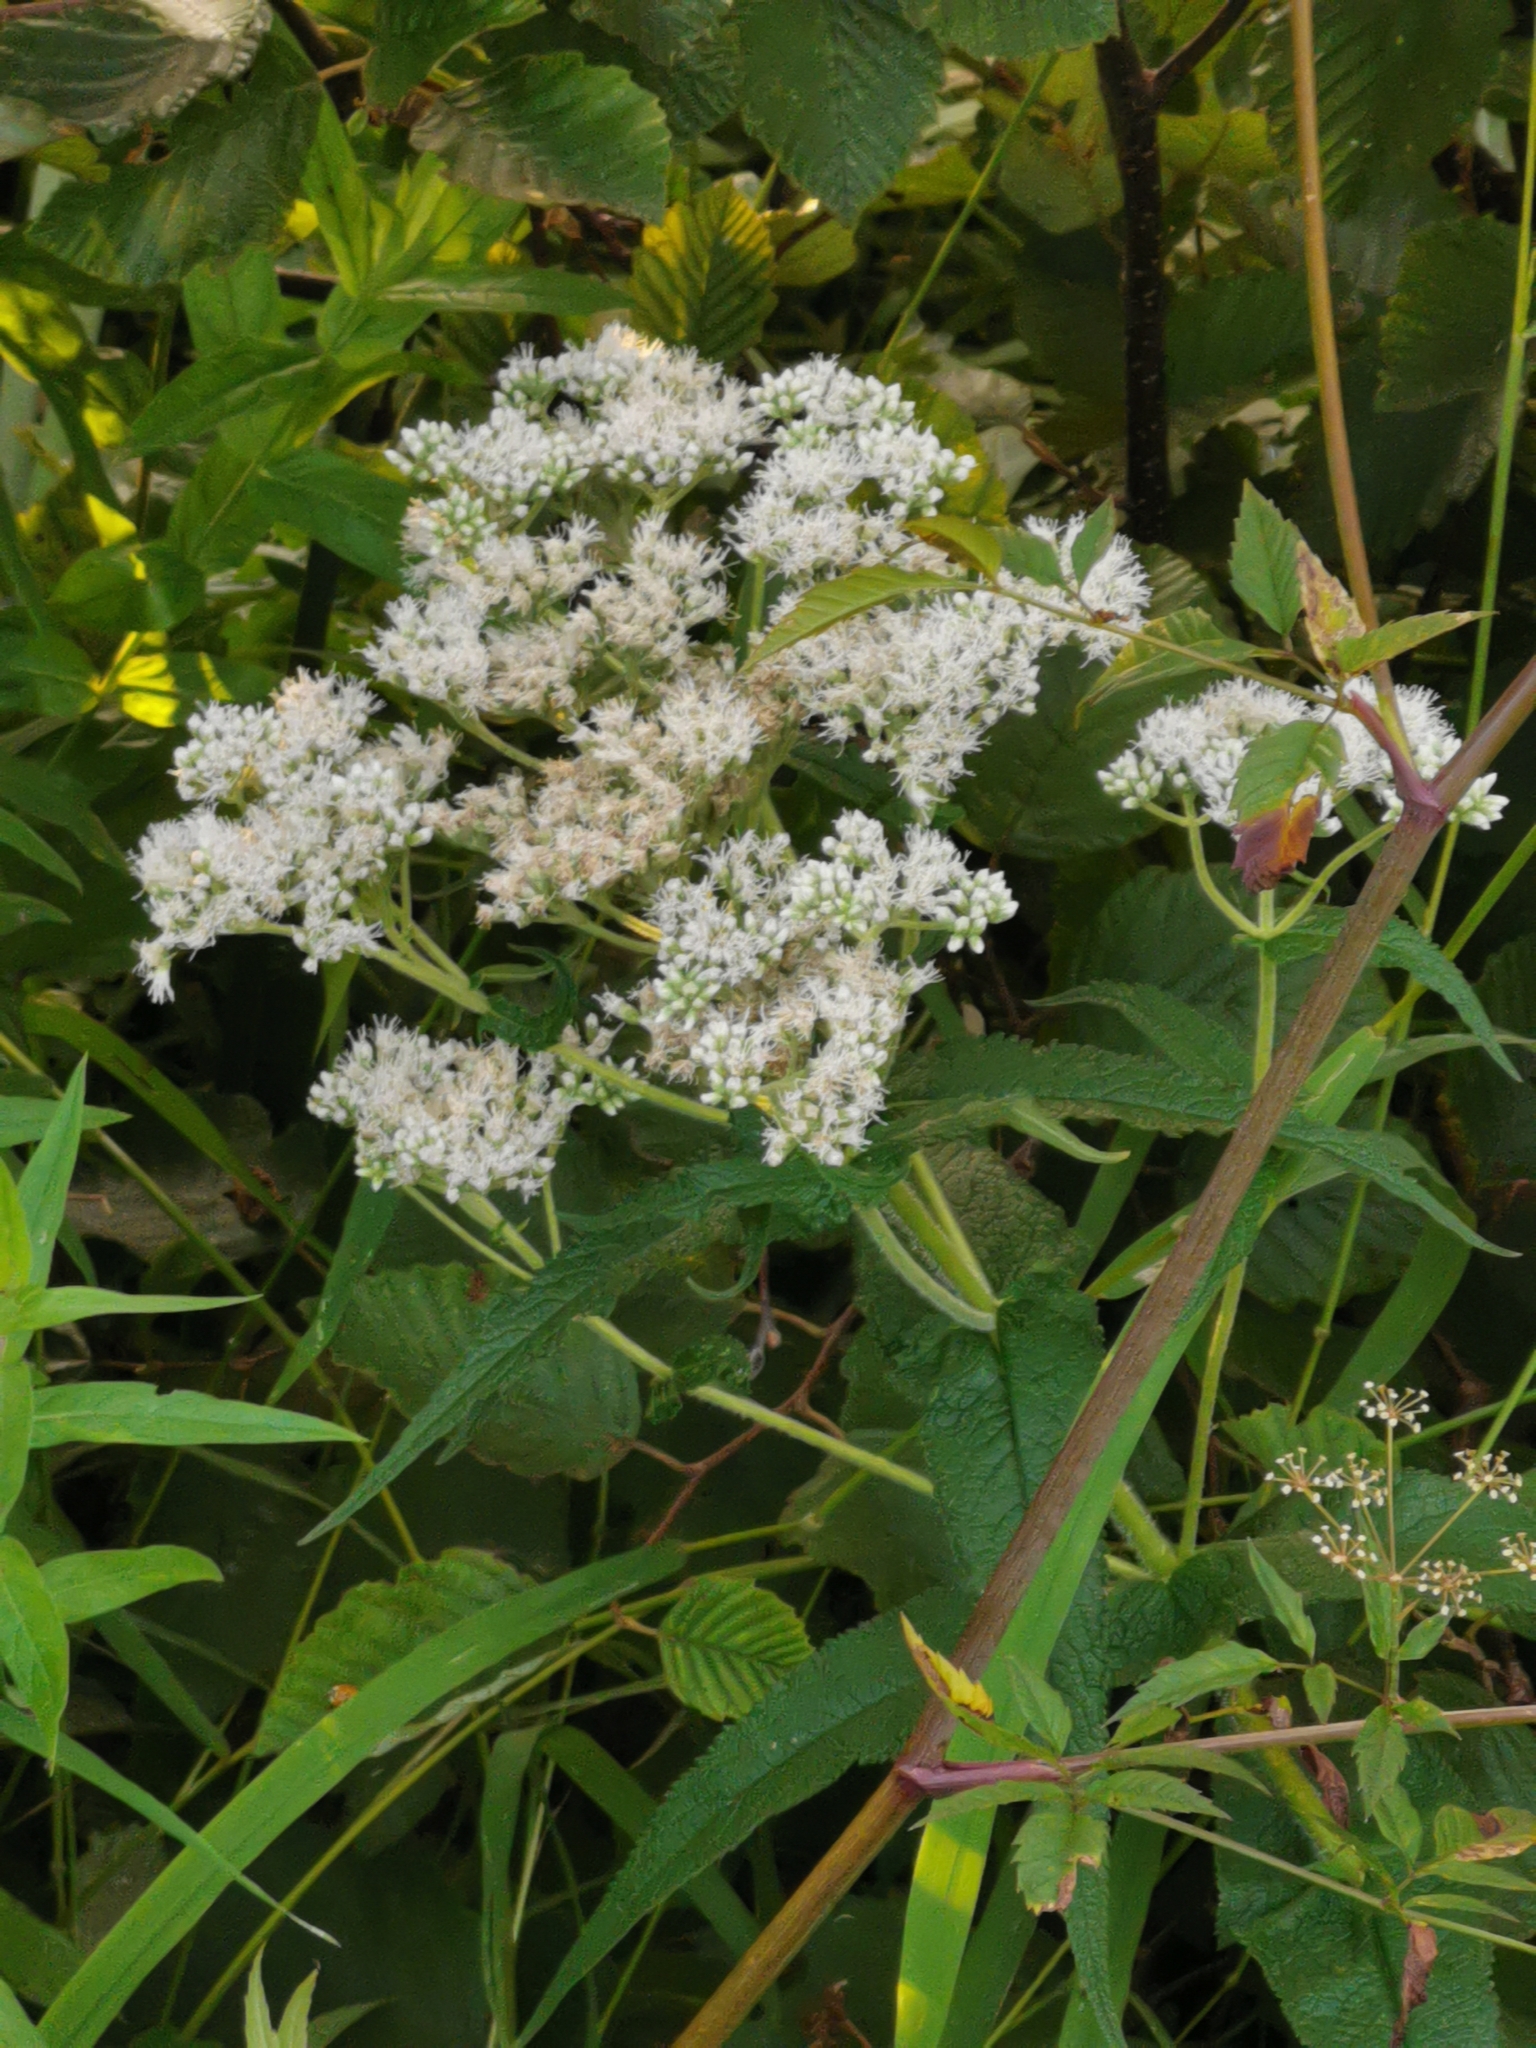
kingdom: Plantae
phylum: Tracheophyta
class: Magnoliopsida
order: Asterales
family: Asteraceae
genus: Eupatorium
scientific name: Eupatorium perfoliatum
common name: Boneset
